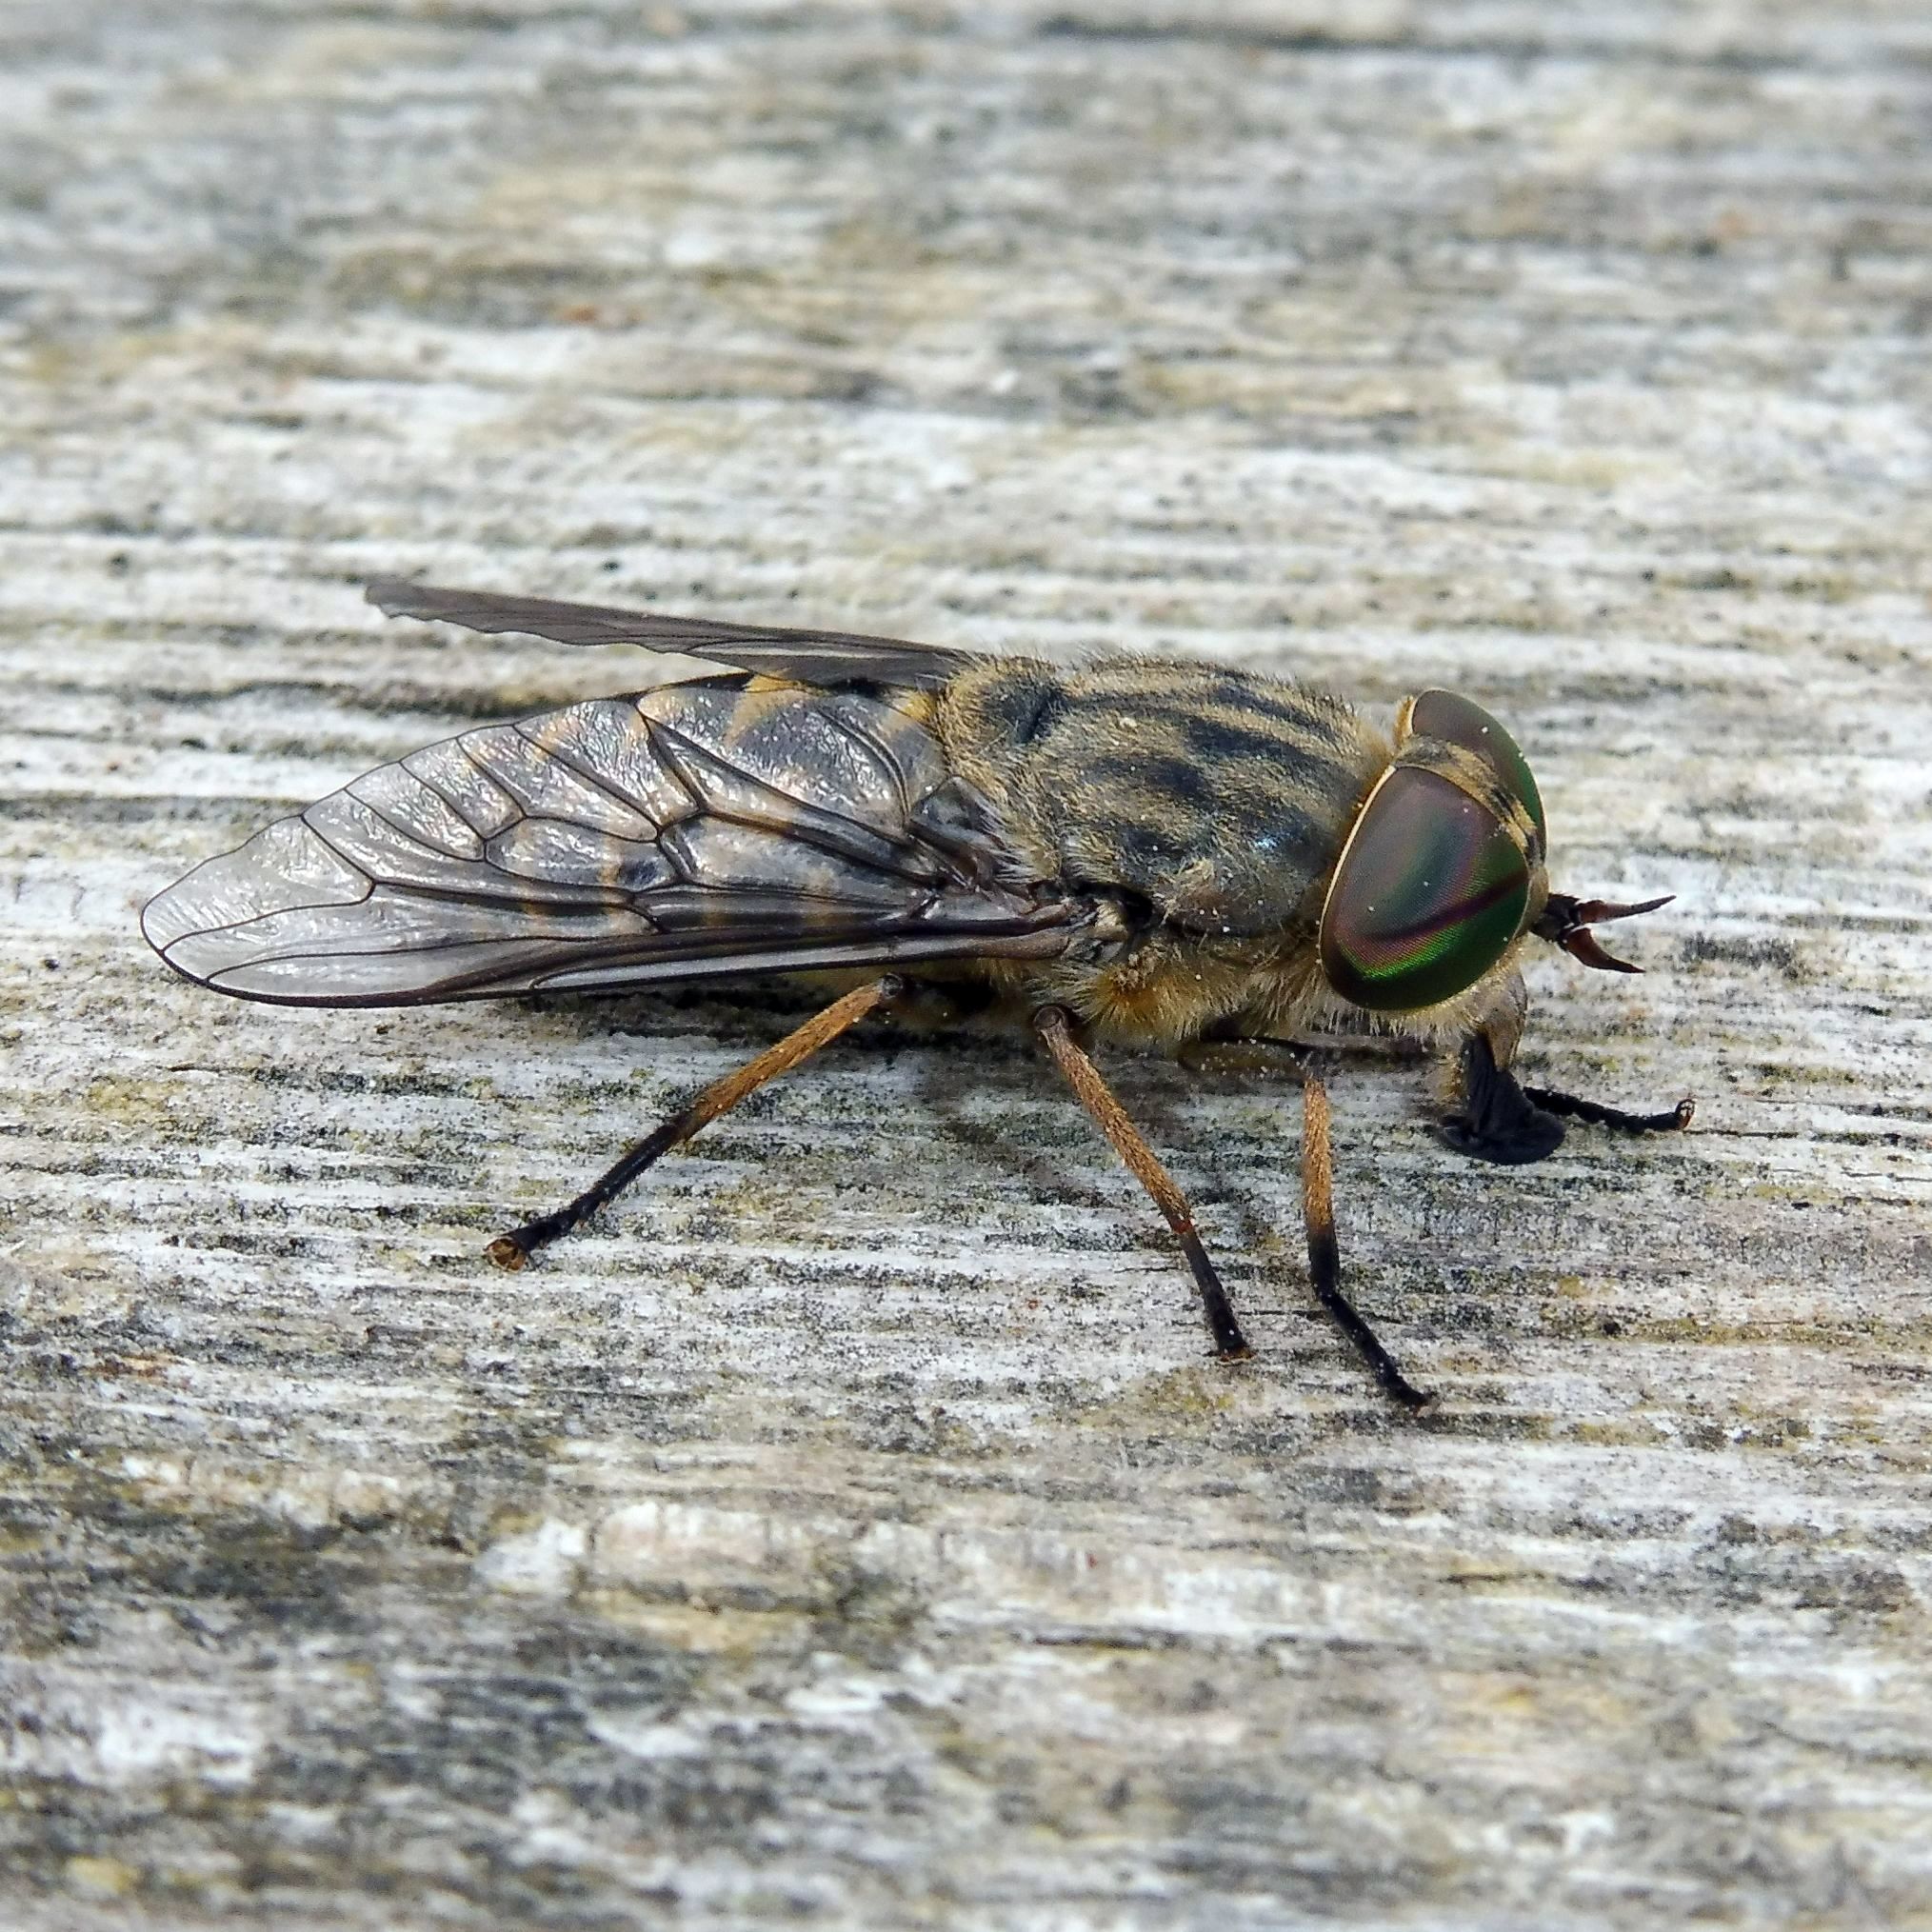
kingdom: Animalia
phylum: Arthropoda
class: Insecta
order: Diptera
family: Tabanidae
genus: Tabanus
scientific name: Tabanus bromius
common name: Band-eyed brown horsefly
